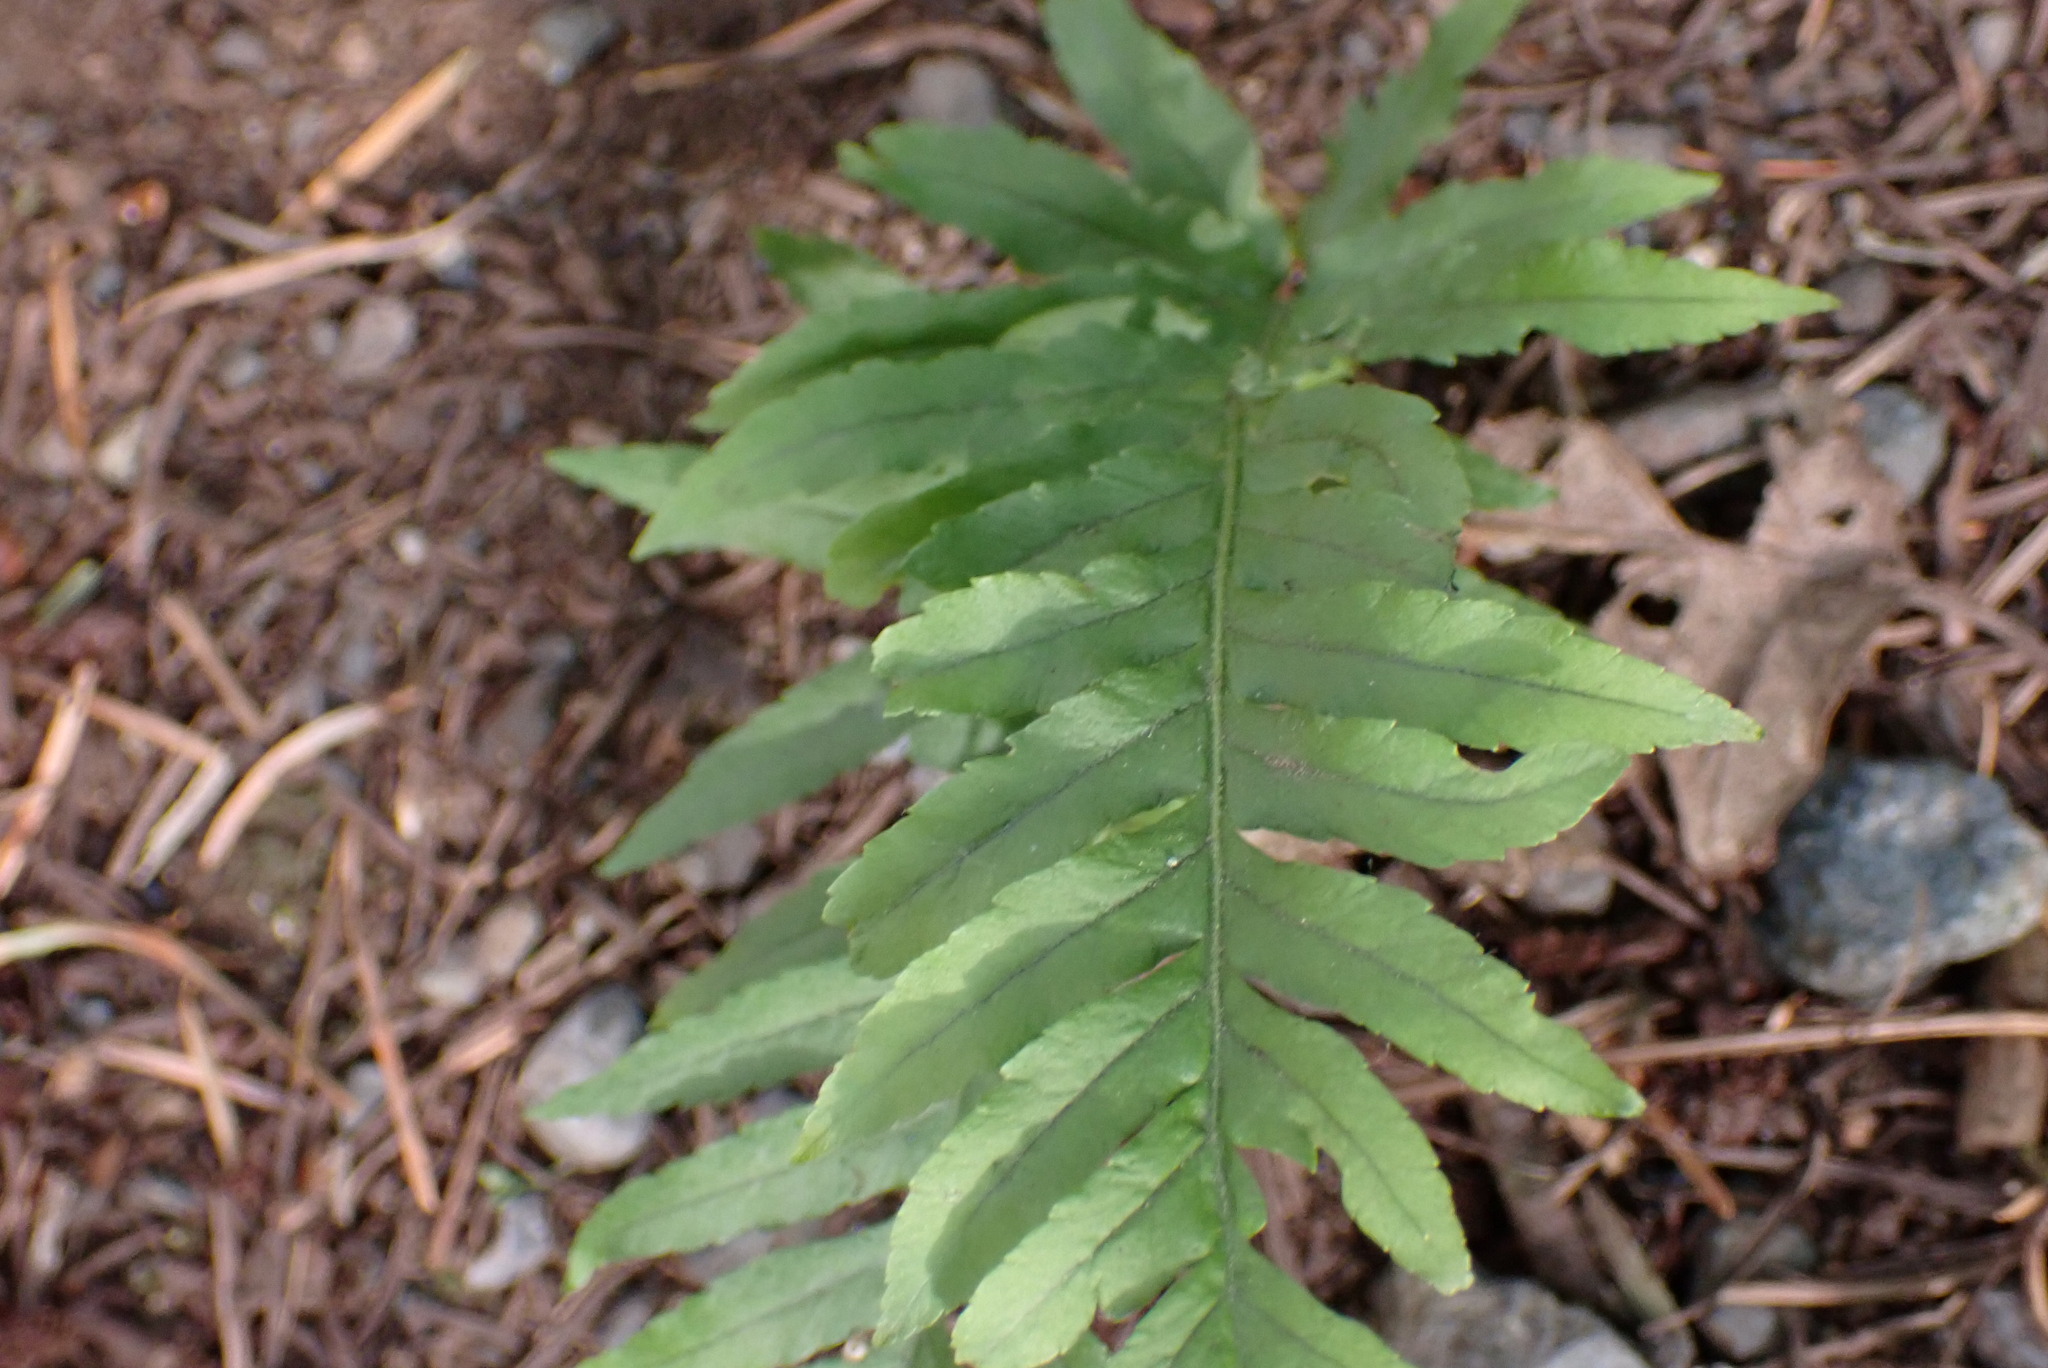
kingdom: Plantae
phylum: Tracheophyta
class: Polypodiopsida
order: Polypodiales
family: Polypodiaceae
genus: Polypodium
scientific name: Polypodium glycyrrhiza
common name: Licorice fern
